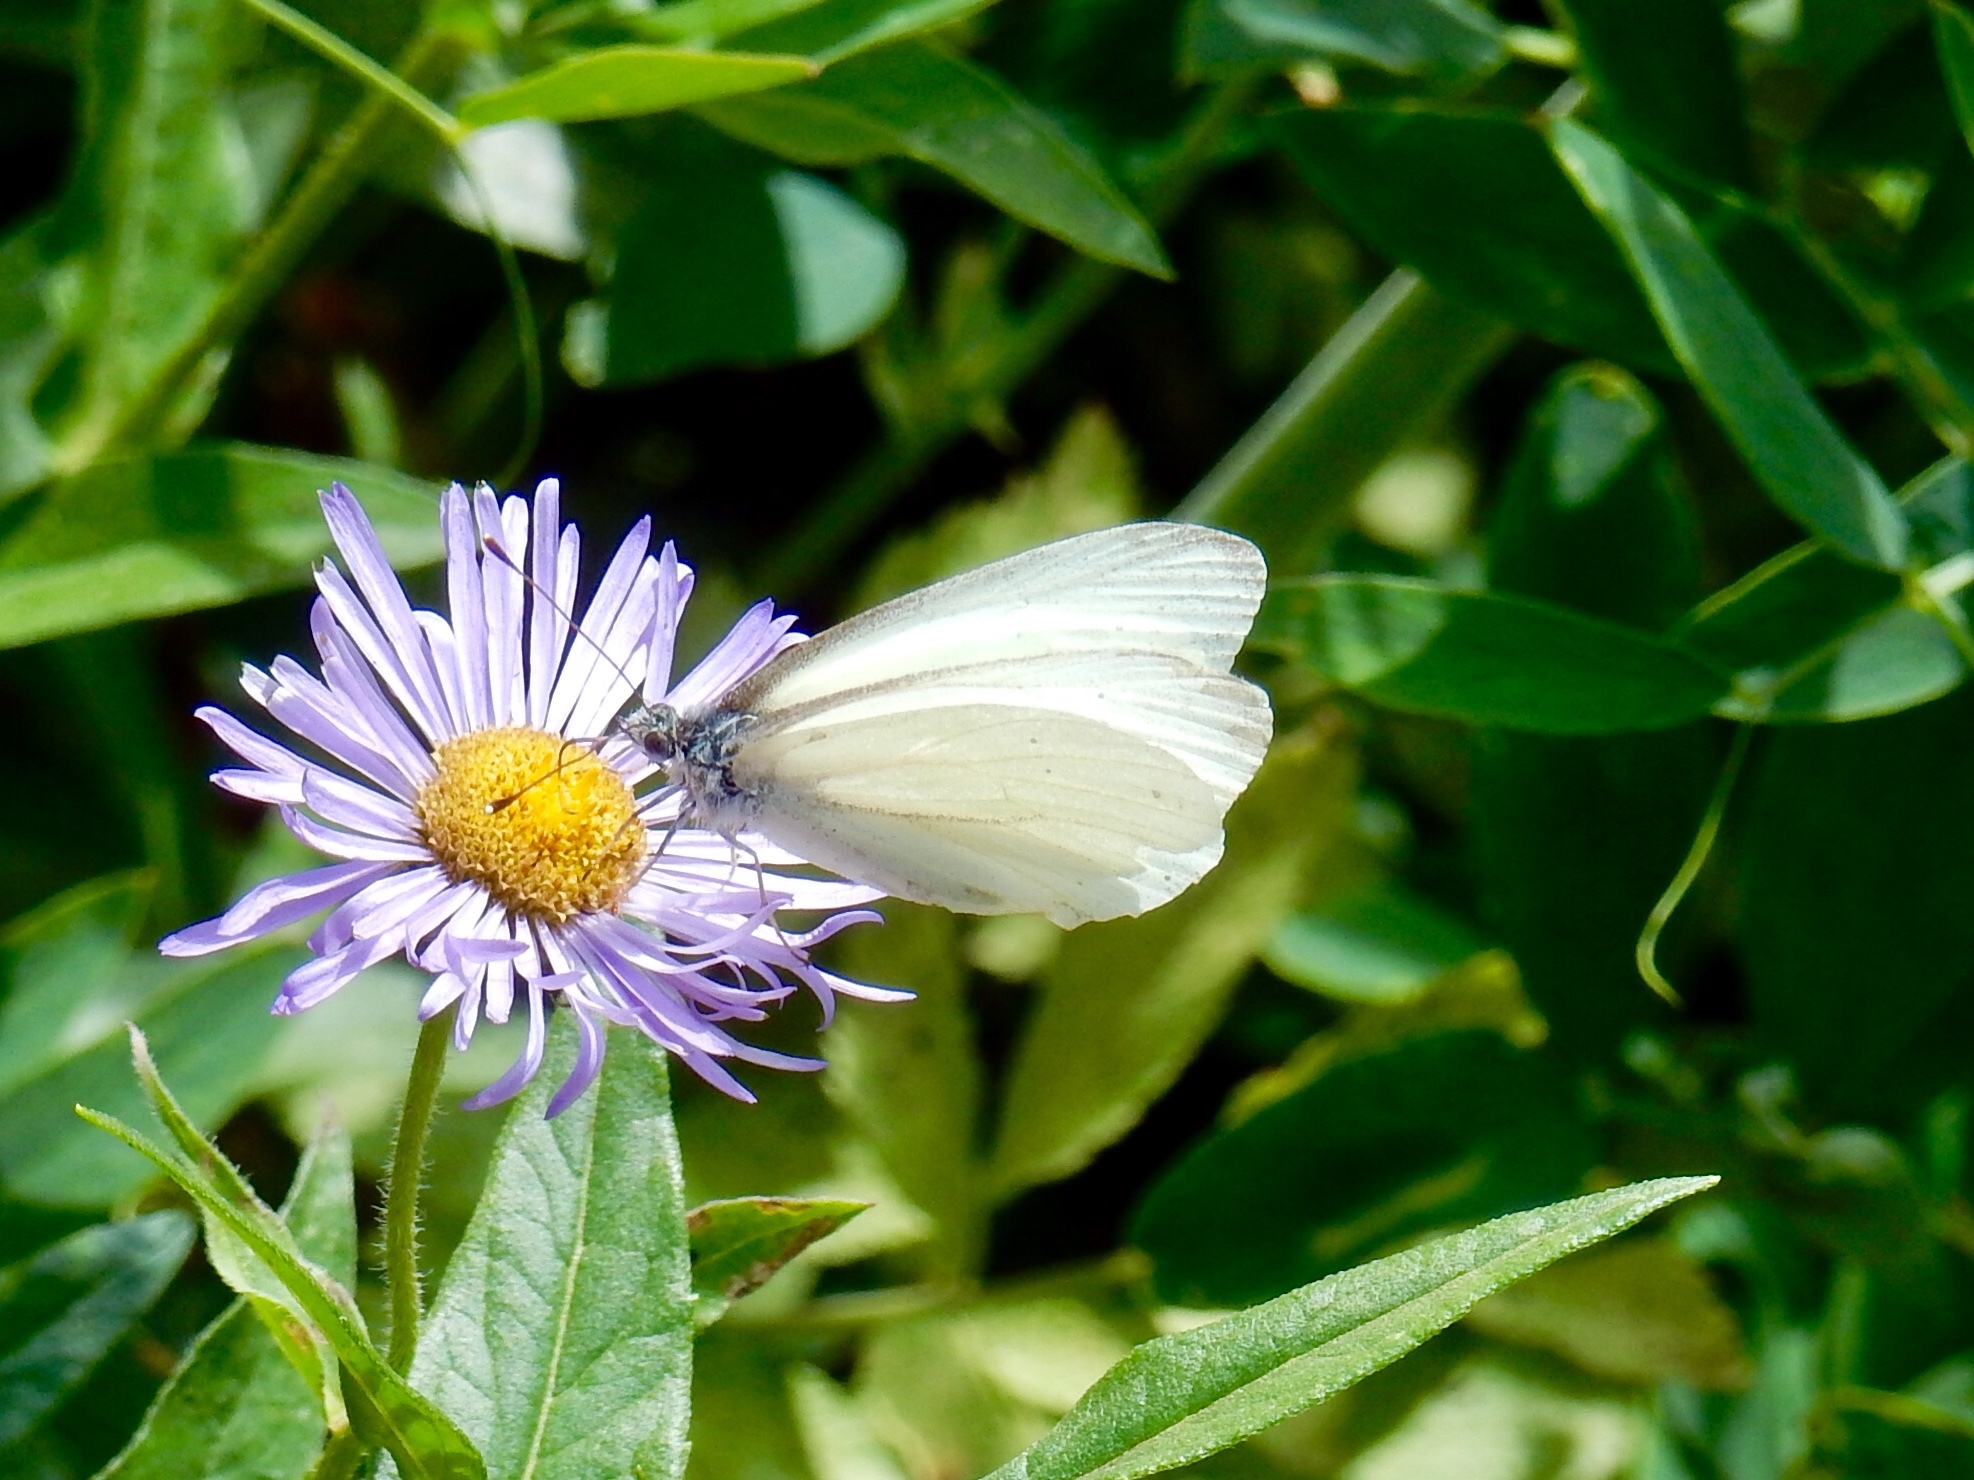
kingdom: Animalia
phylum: Arthropoda
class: Insecta
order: Lepidoptera
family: Pieridae
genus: Pieris
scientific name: Pieris marginalis
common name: Margined white
